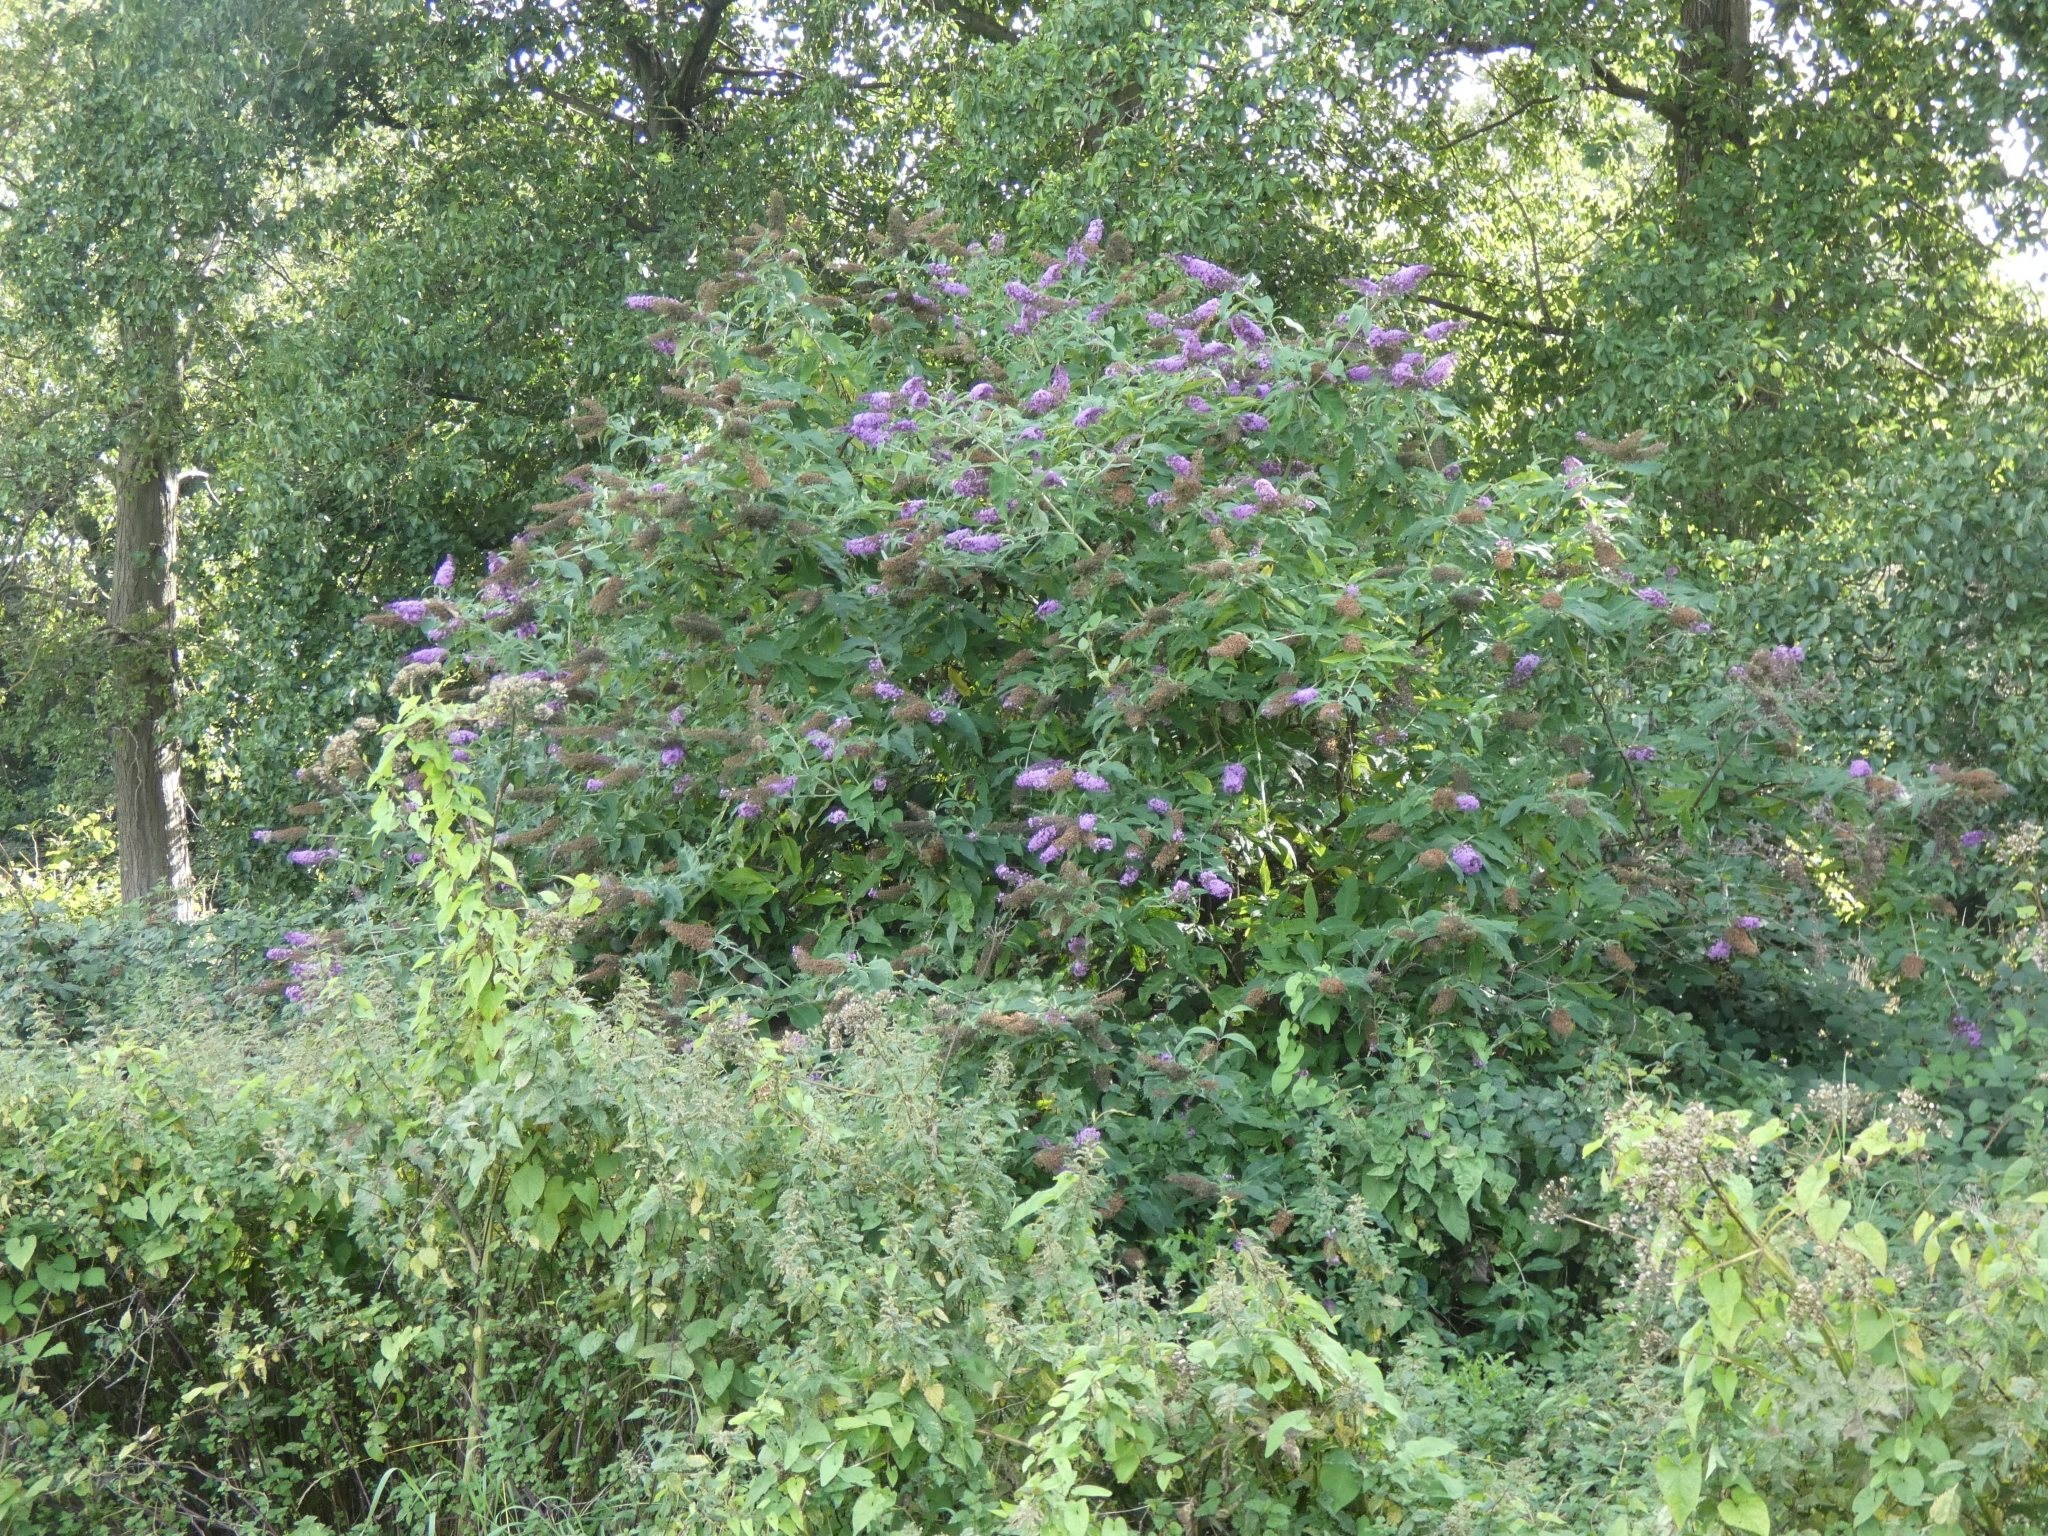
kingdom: Plantae
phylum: Tracheophyta
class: Magnoliopsida
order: Lamiales
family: Scrophulariaceae
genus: Buddleja
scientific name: Buddleja davidii
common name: Butterfly-bush
